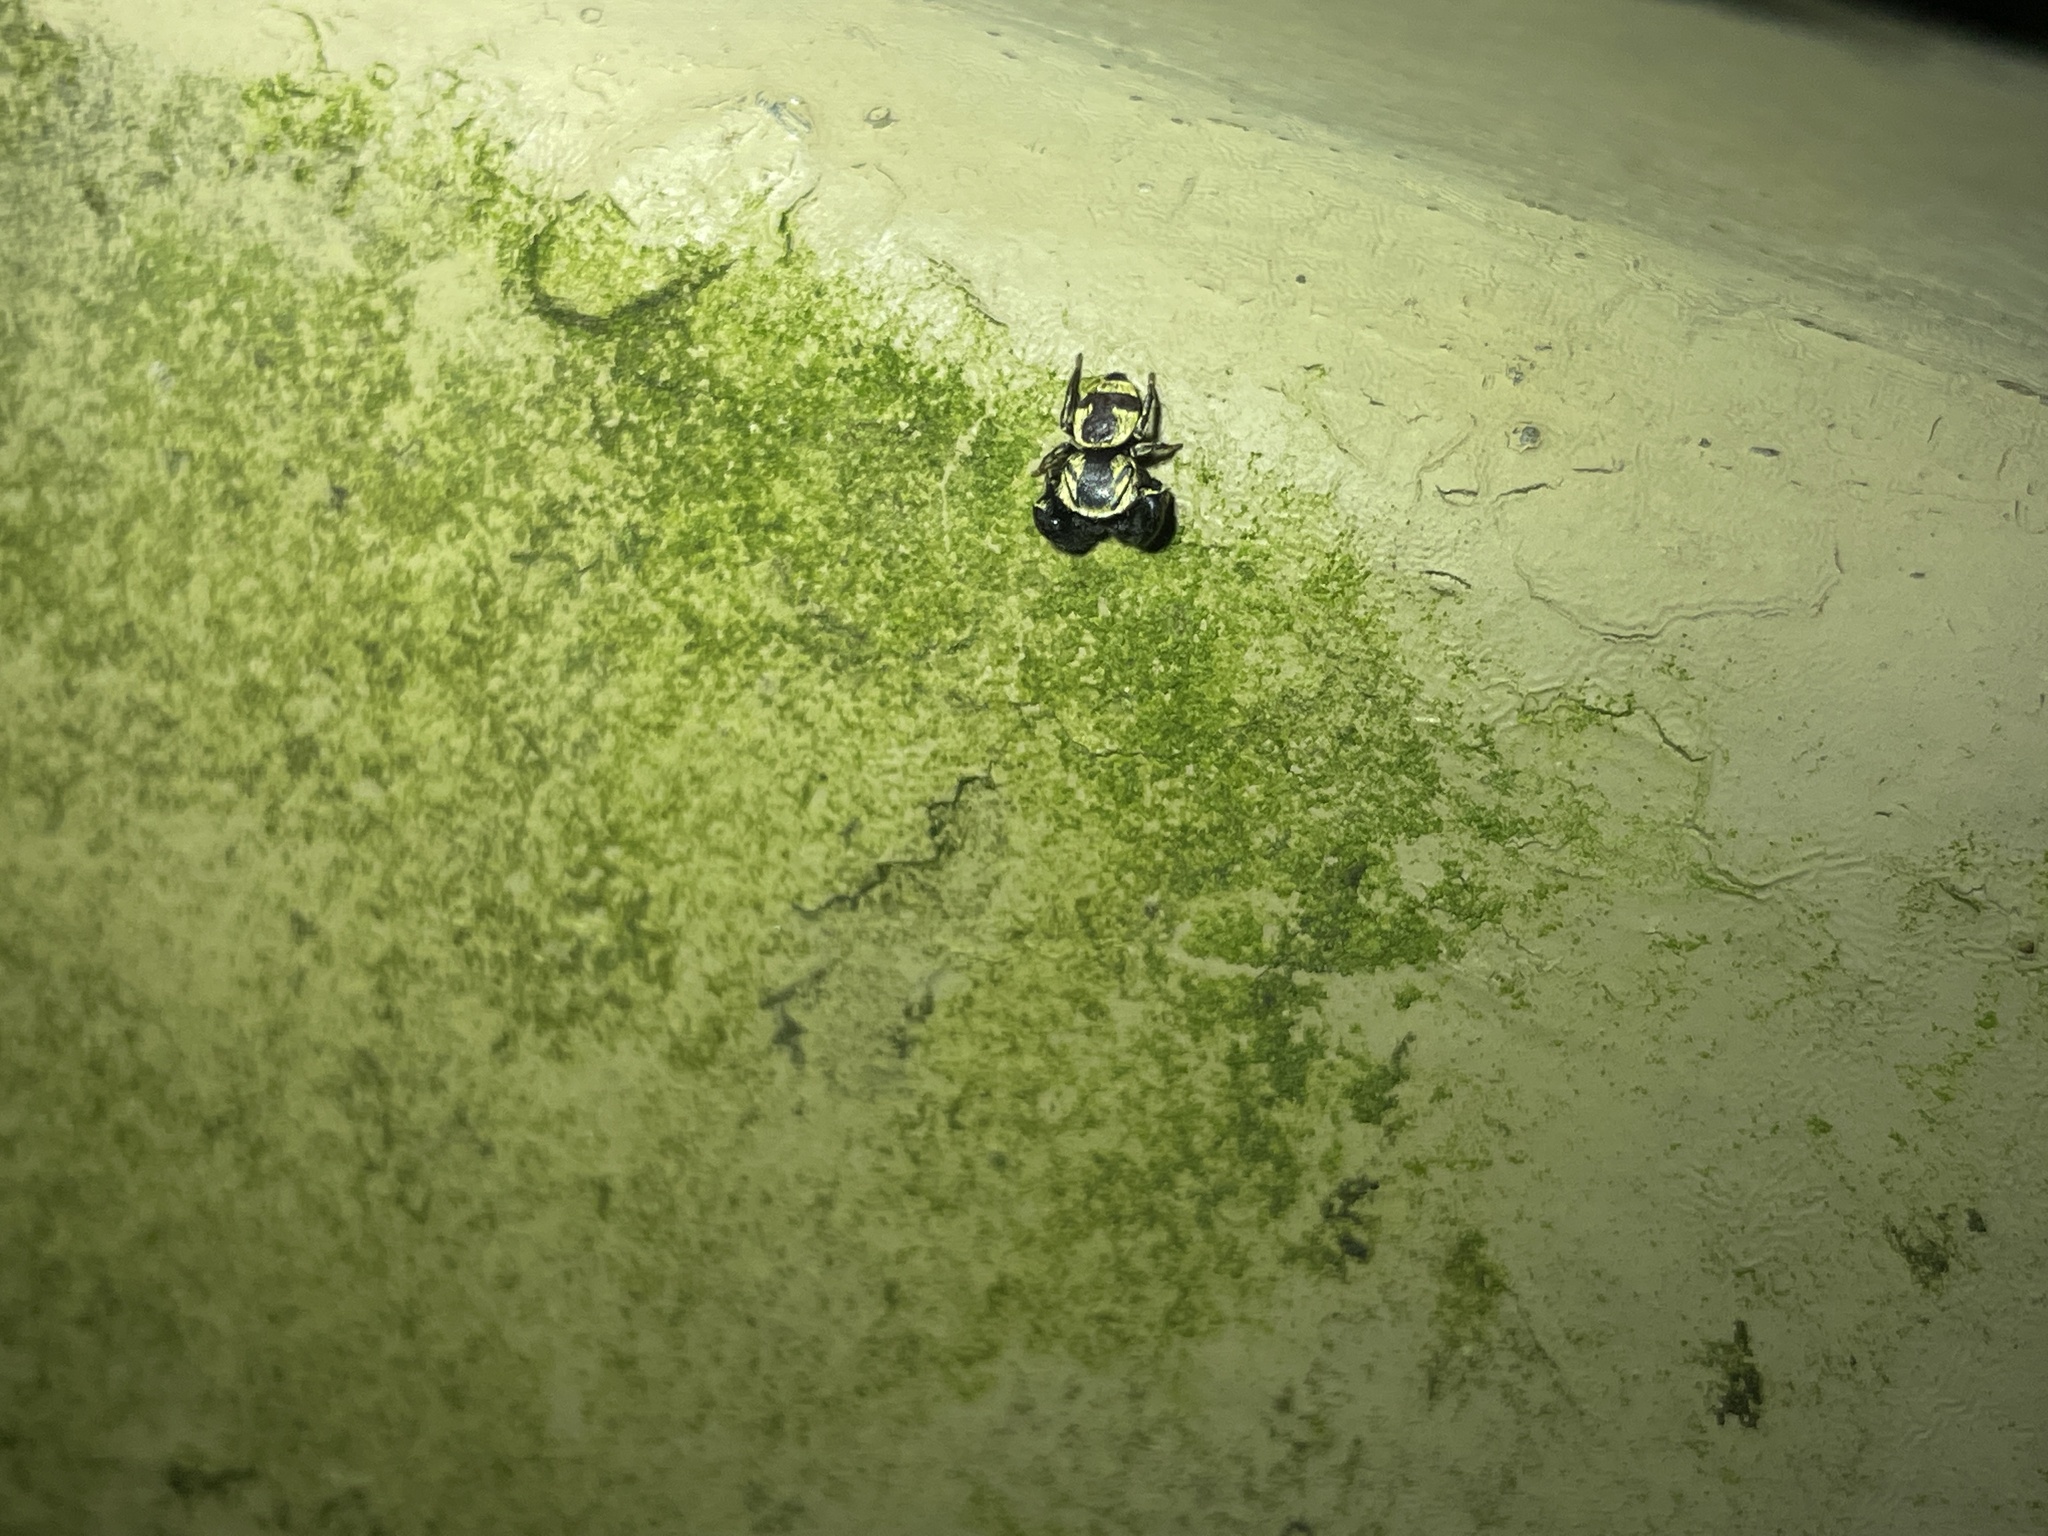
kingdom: Animalia
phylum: Arthropoda
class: Arachnida
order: Araneae
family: Salticidae
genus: Rhene
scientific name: Rhene flavicomans
